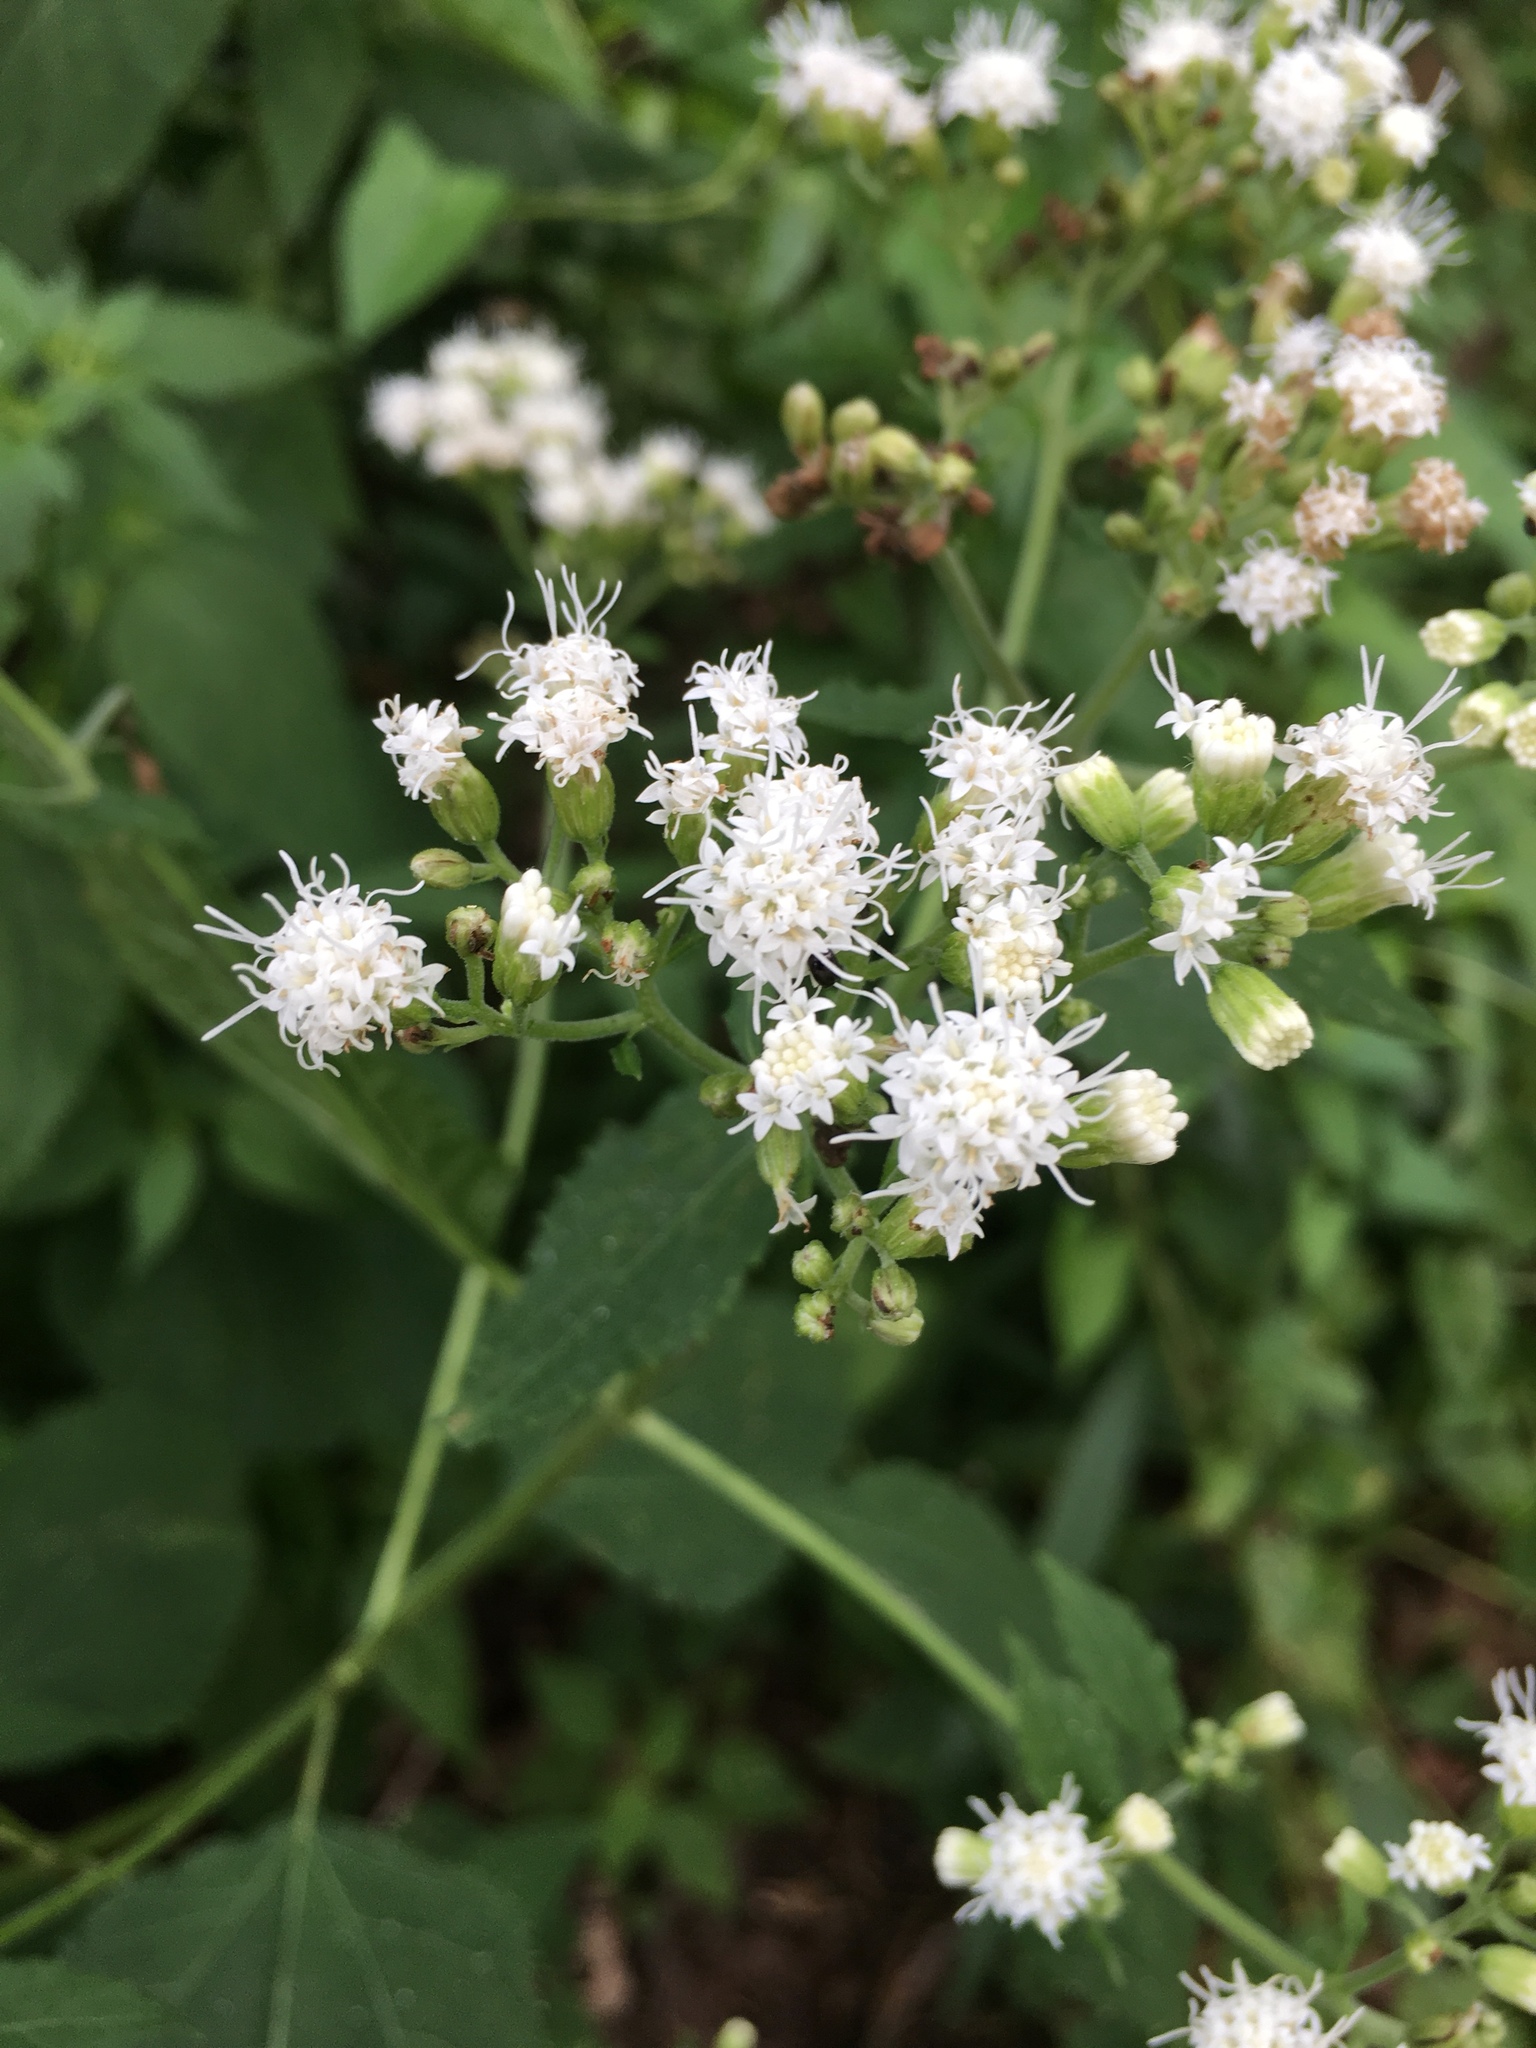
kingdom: Plantae
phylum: Tracheophyta
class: Magnoliopsida
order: Asterales
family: Asteraceae
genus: Ageratina
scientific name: Ageratina altissima
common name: White snakeroot
